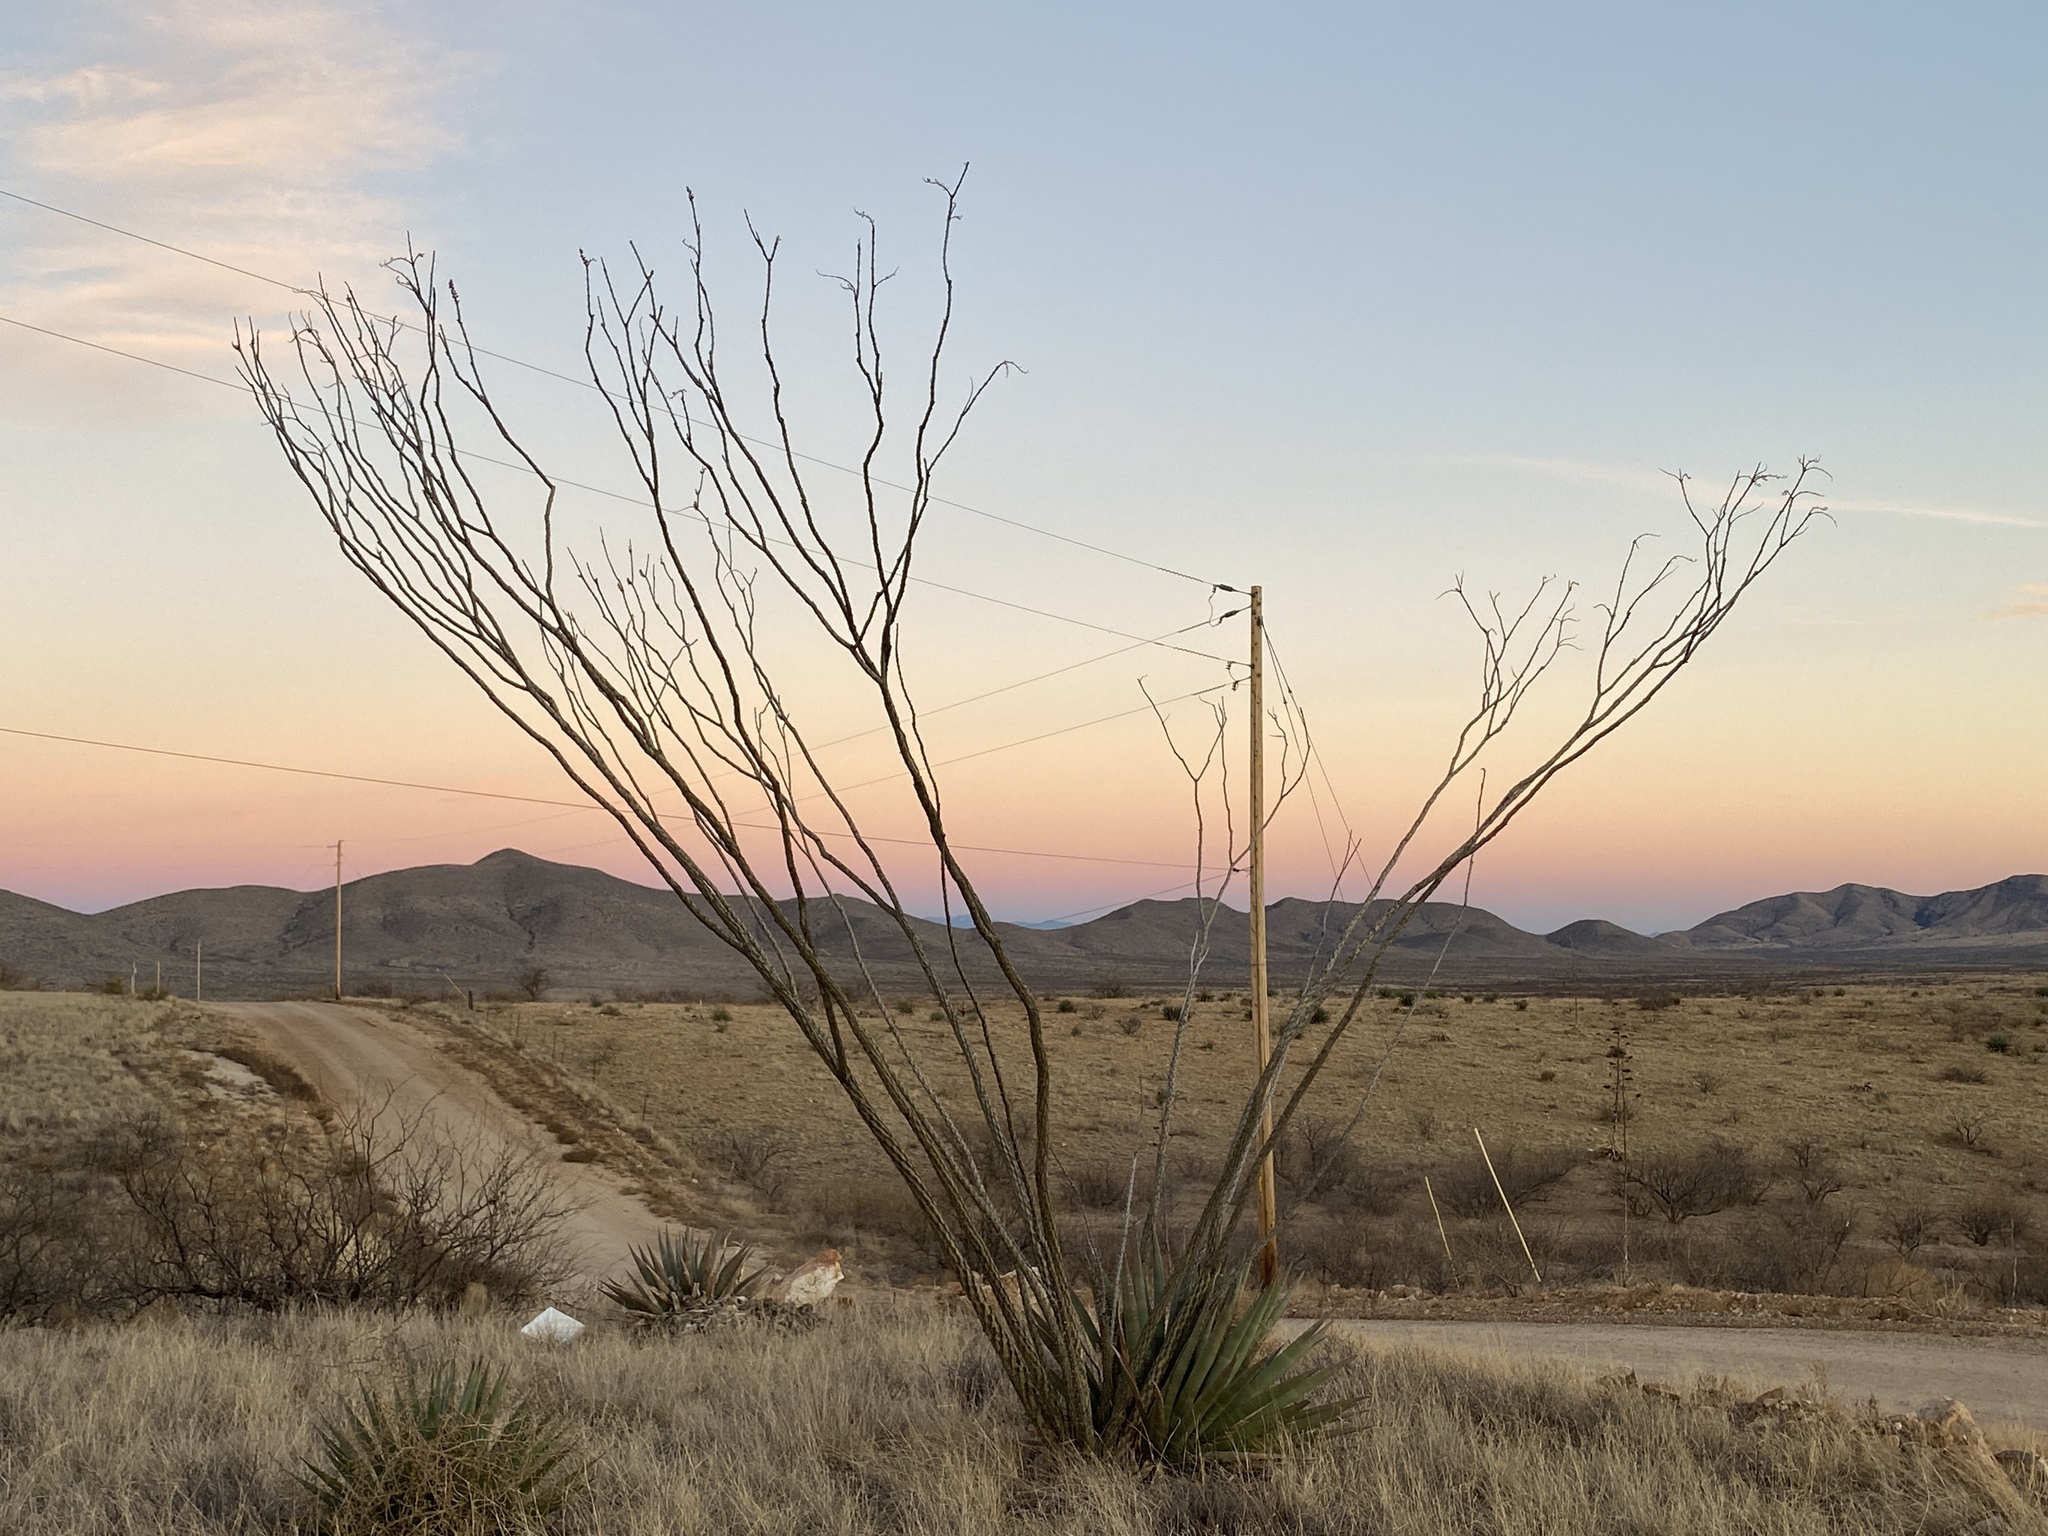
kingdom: Plantae
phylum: Tracheophyta
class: Magnoliopsida
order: Ericales
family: Fouquieriaceae
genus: Fouquieria
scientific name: Fouquieria splendens
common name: Vine-cactus
